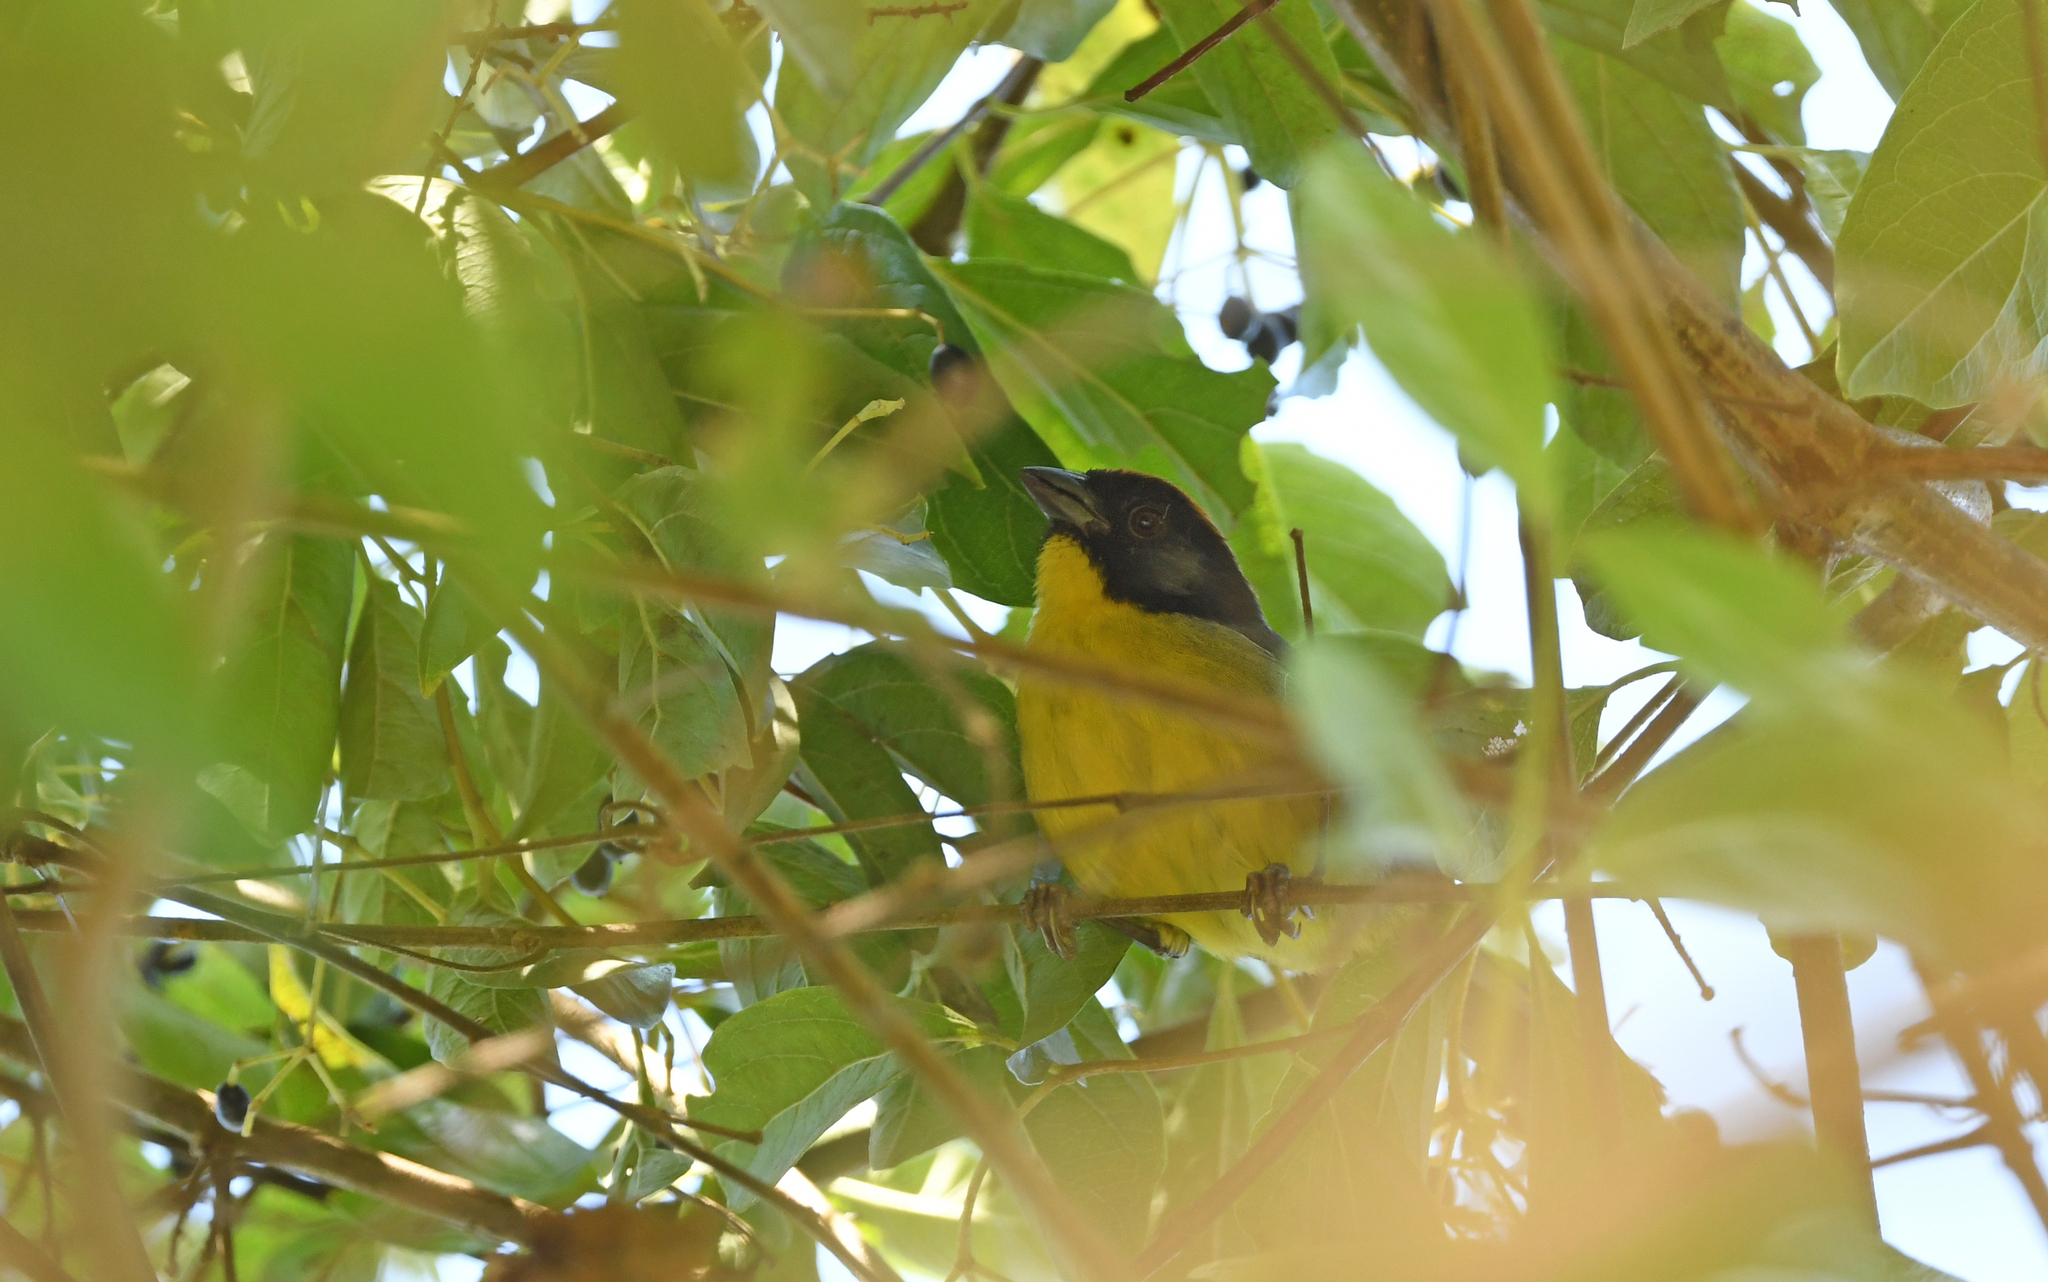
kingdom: Animalia
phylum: Chordata
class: Aves
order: Passeriformes
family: Passerellidae
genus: Atlapetes
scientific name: Atlapetes nigrifrons
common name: Black-fronted brushfinch
